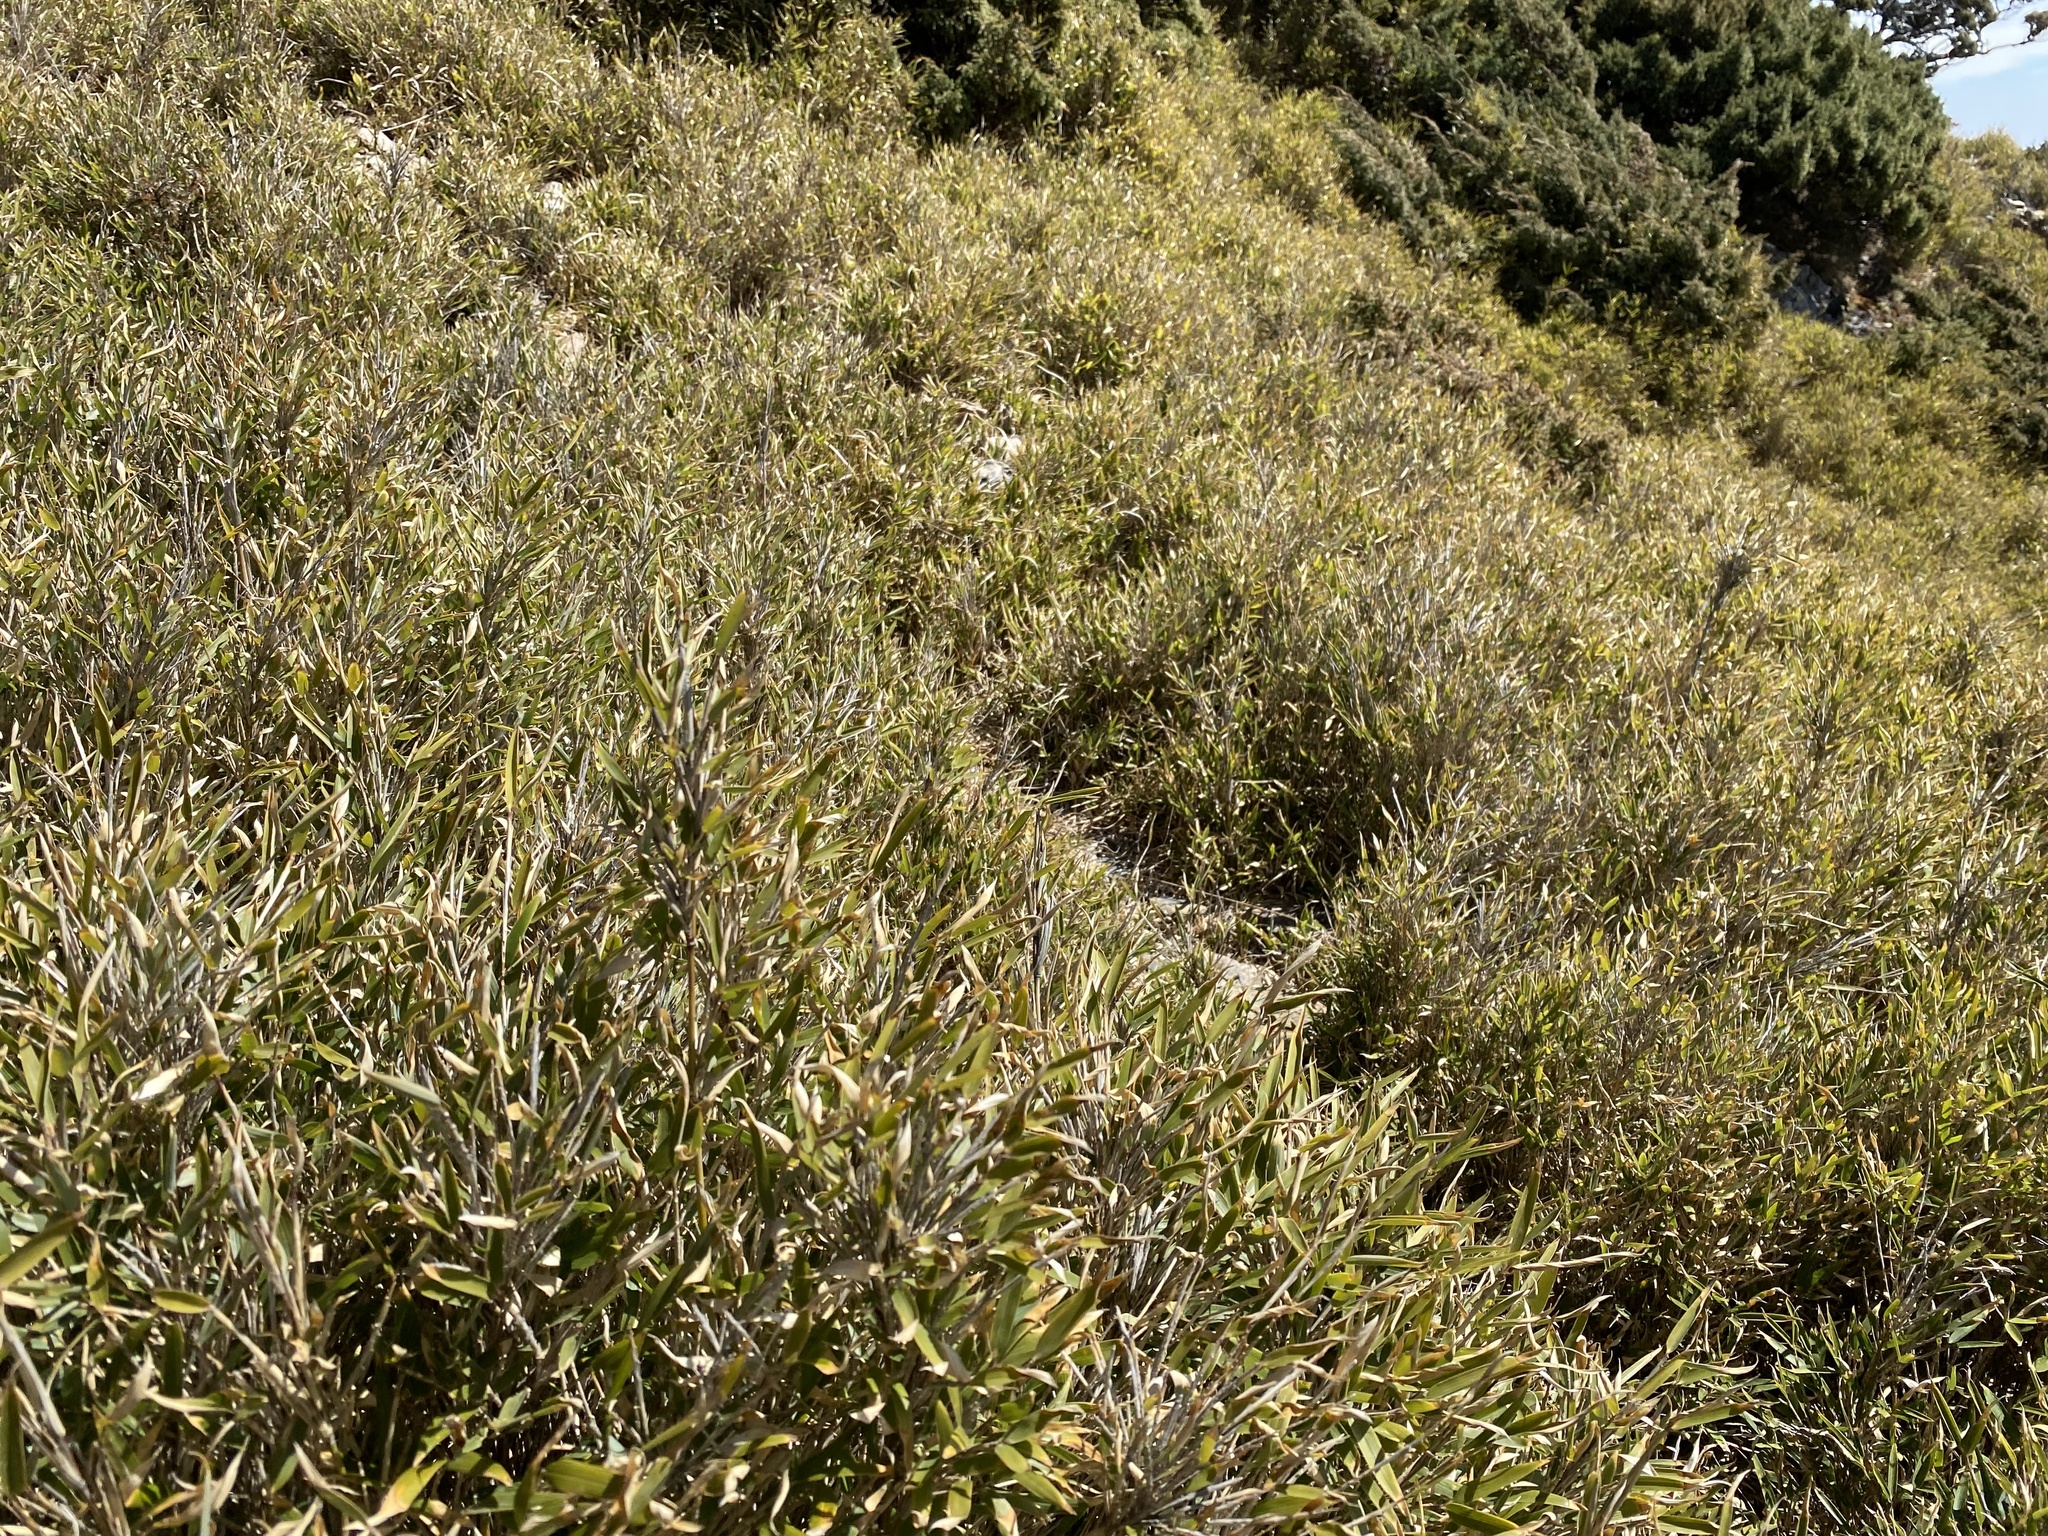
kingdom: Plantae
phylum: Tracheophyta
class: Liliopsida
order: Poales
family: Poaceae
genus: Yushania
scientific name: Yushania niitakayamensis
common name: Yushan cane
